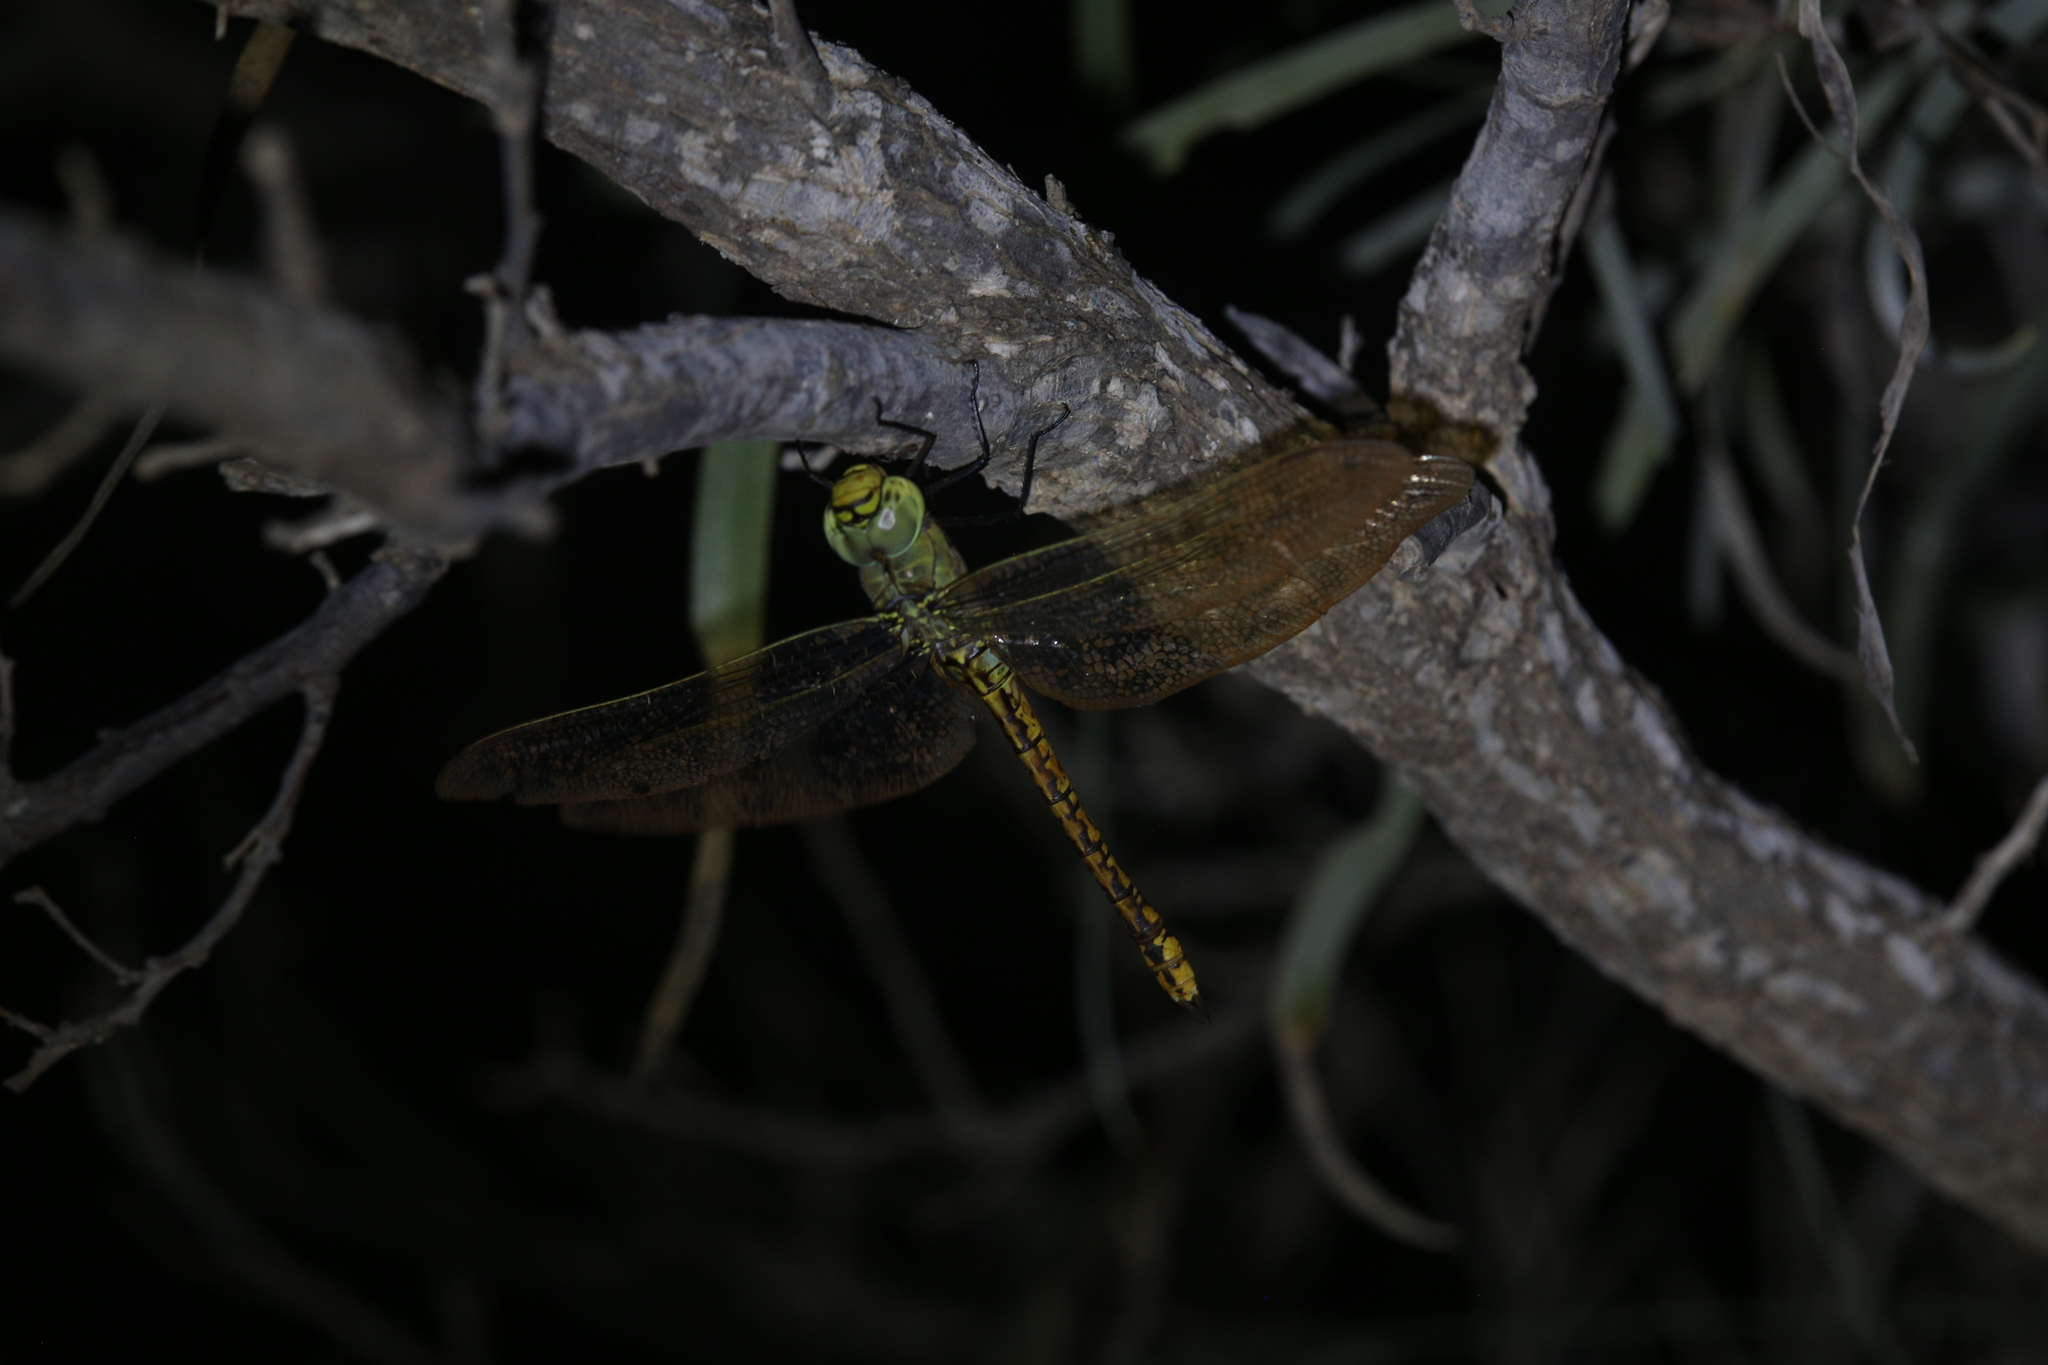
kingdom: Animalia
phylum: Arthropoda
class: Insecta
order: Odonata
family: Aeshnidae
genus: Anax
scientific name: Anax papuensis
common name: Australian emperor
